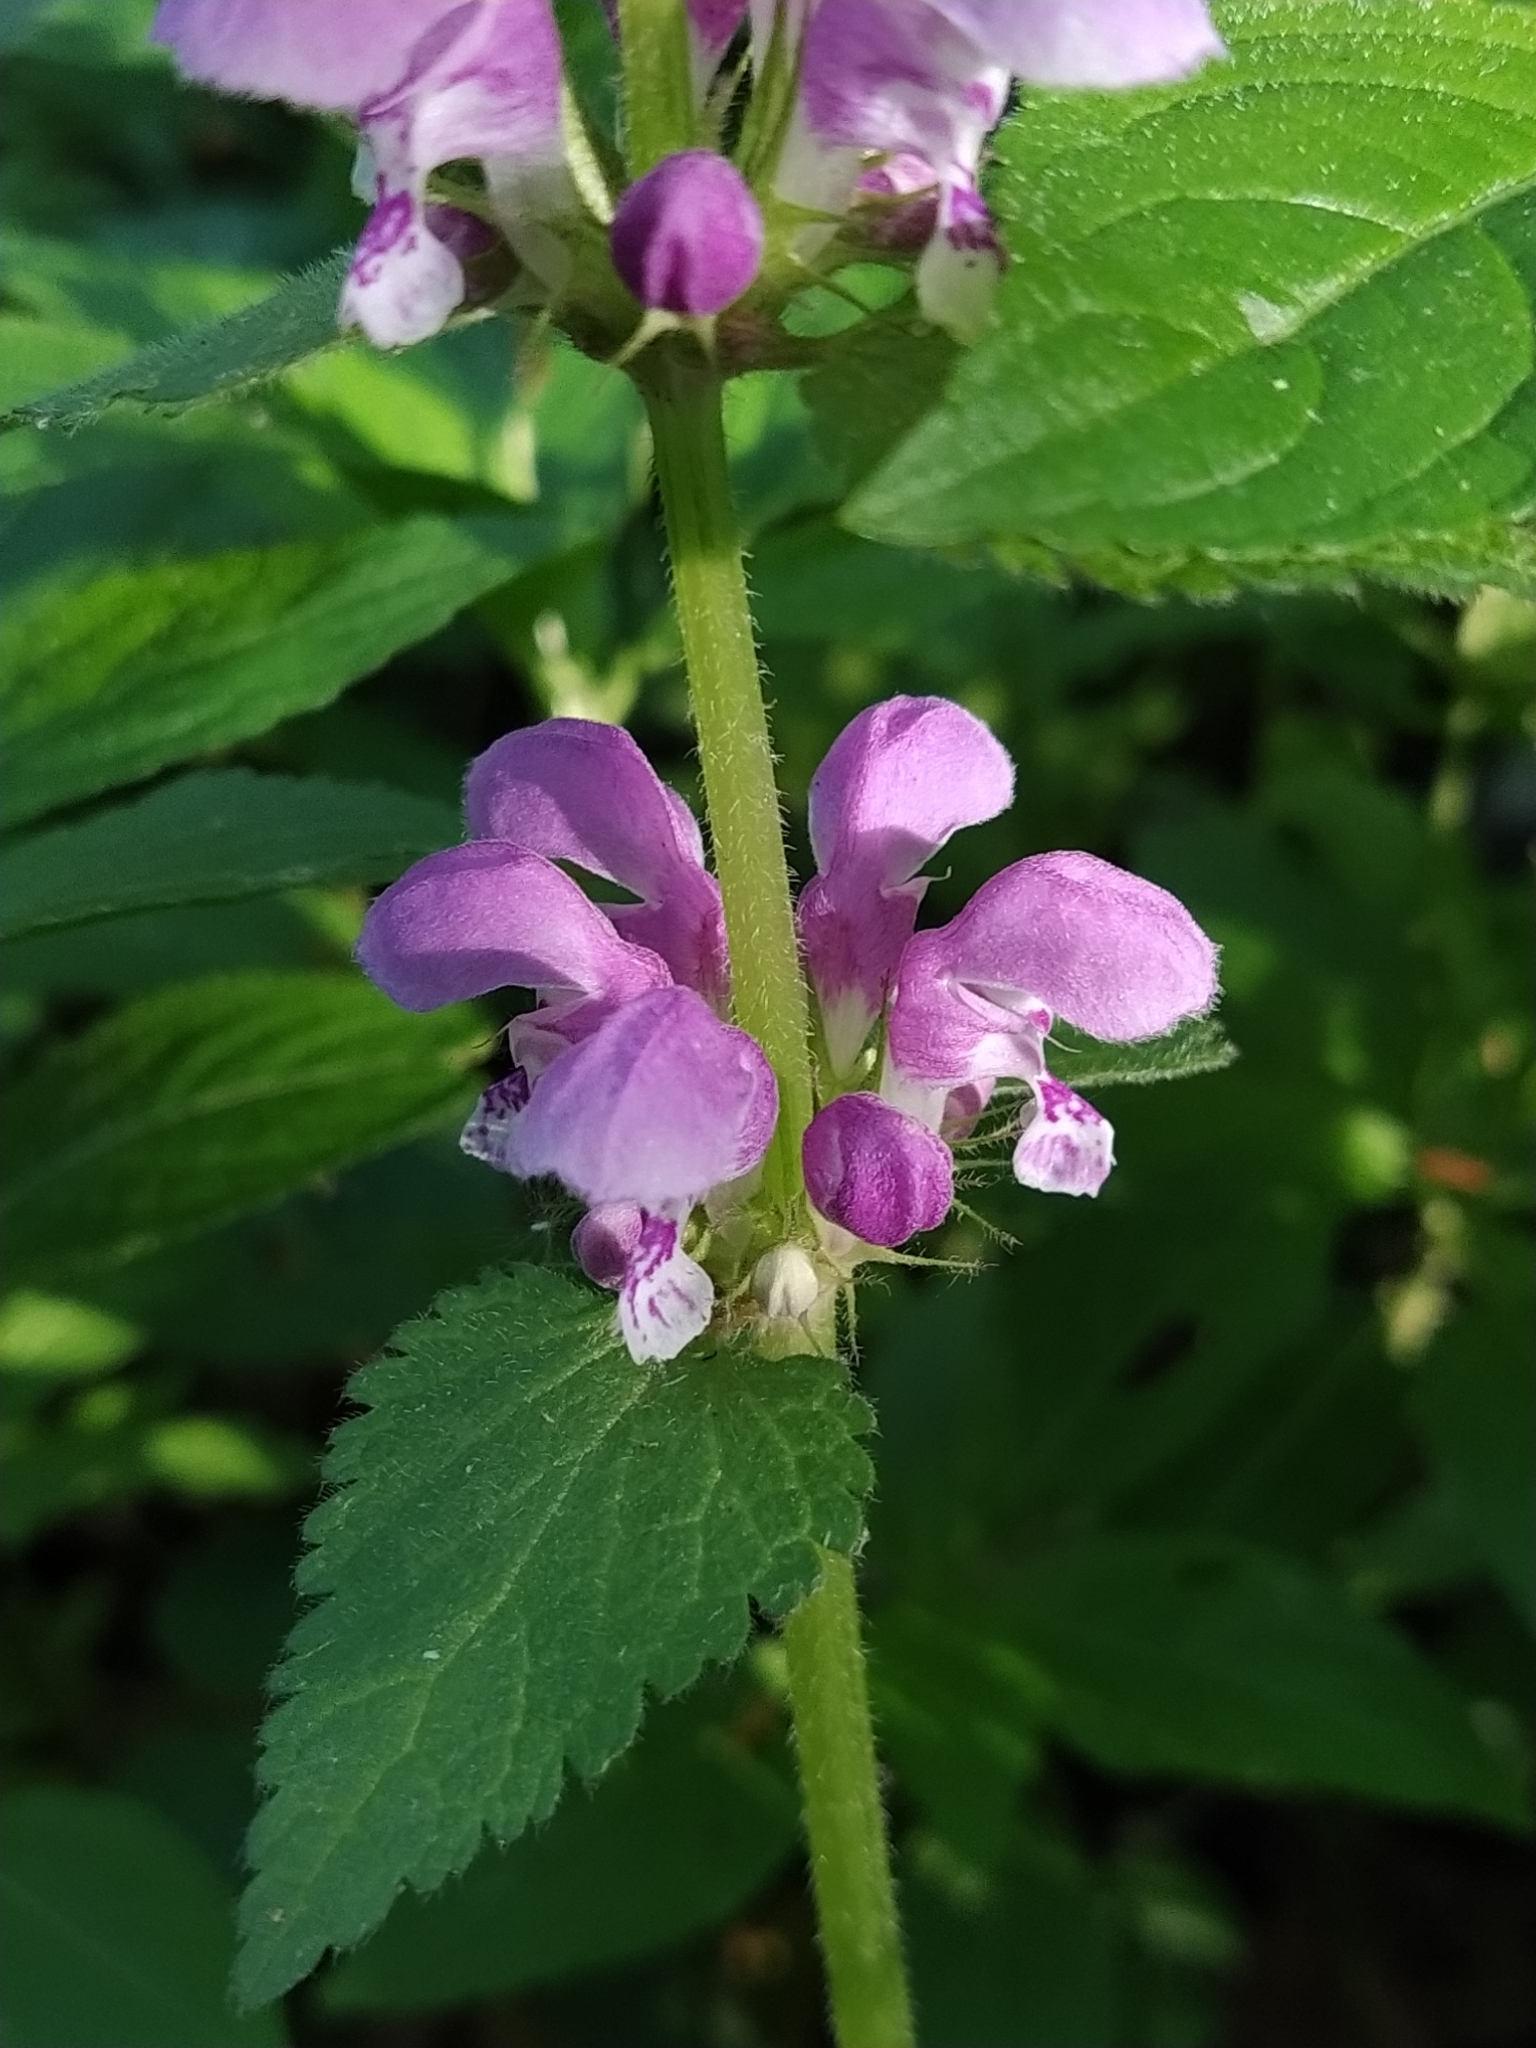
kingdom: Plantae
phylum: Tracheophyta
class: Magnoliopsida
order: Lamiales
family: Lamiaceae
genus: Lamium
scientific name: Lamium maculatum
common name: Spotted dead-nettle
